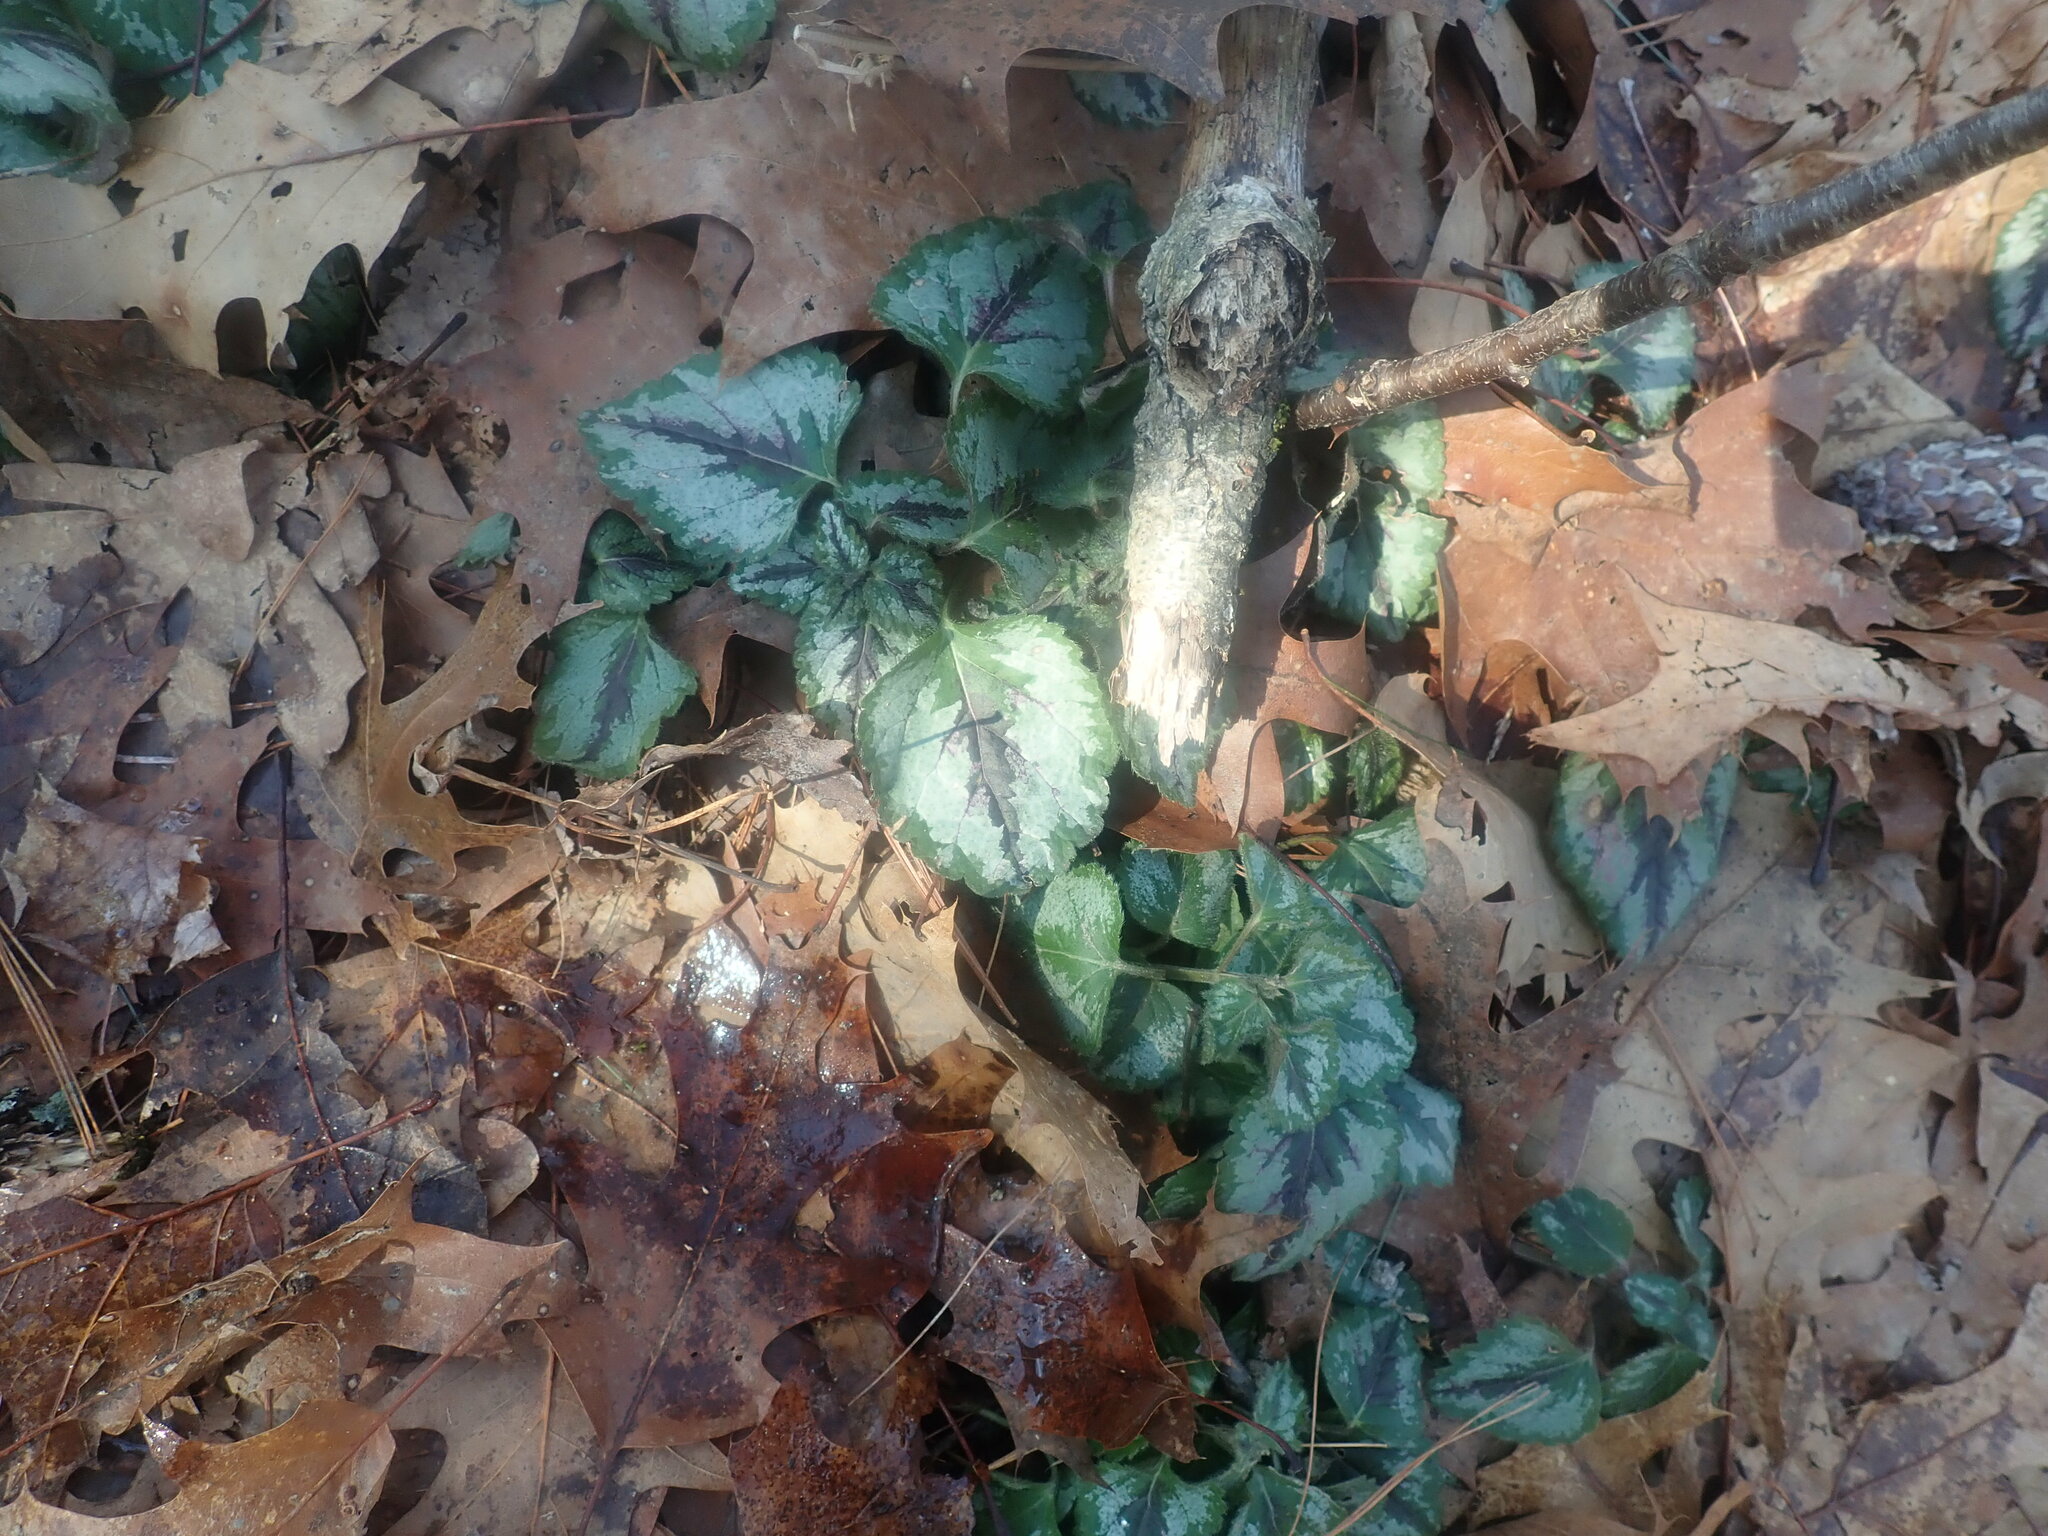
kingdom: Plantae
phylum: Tracheophyta
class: Magnoliopsida
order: Lamiales
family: Lamiaceae
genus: Lamium
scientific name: Lamium galeobdolon
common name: Yellow archangel
